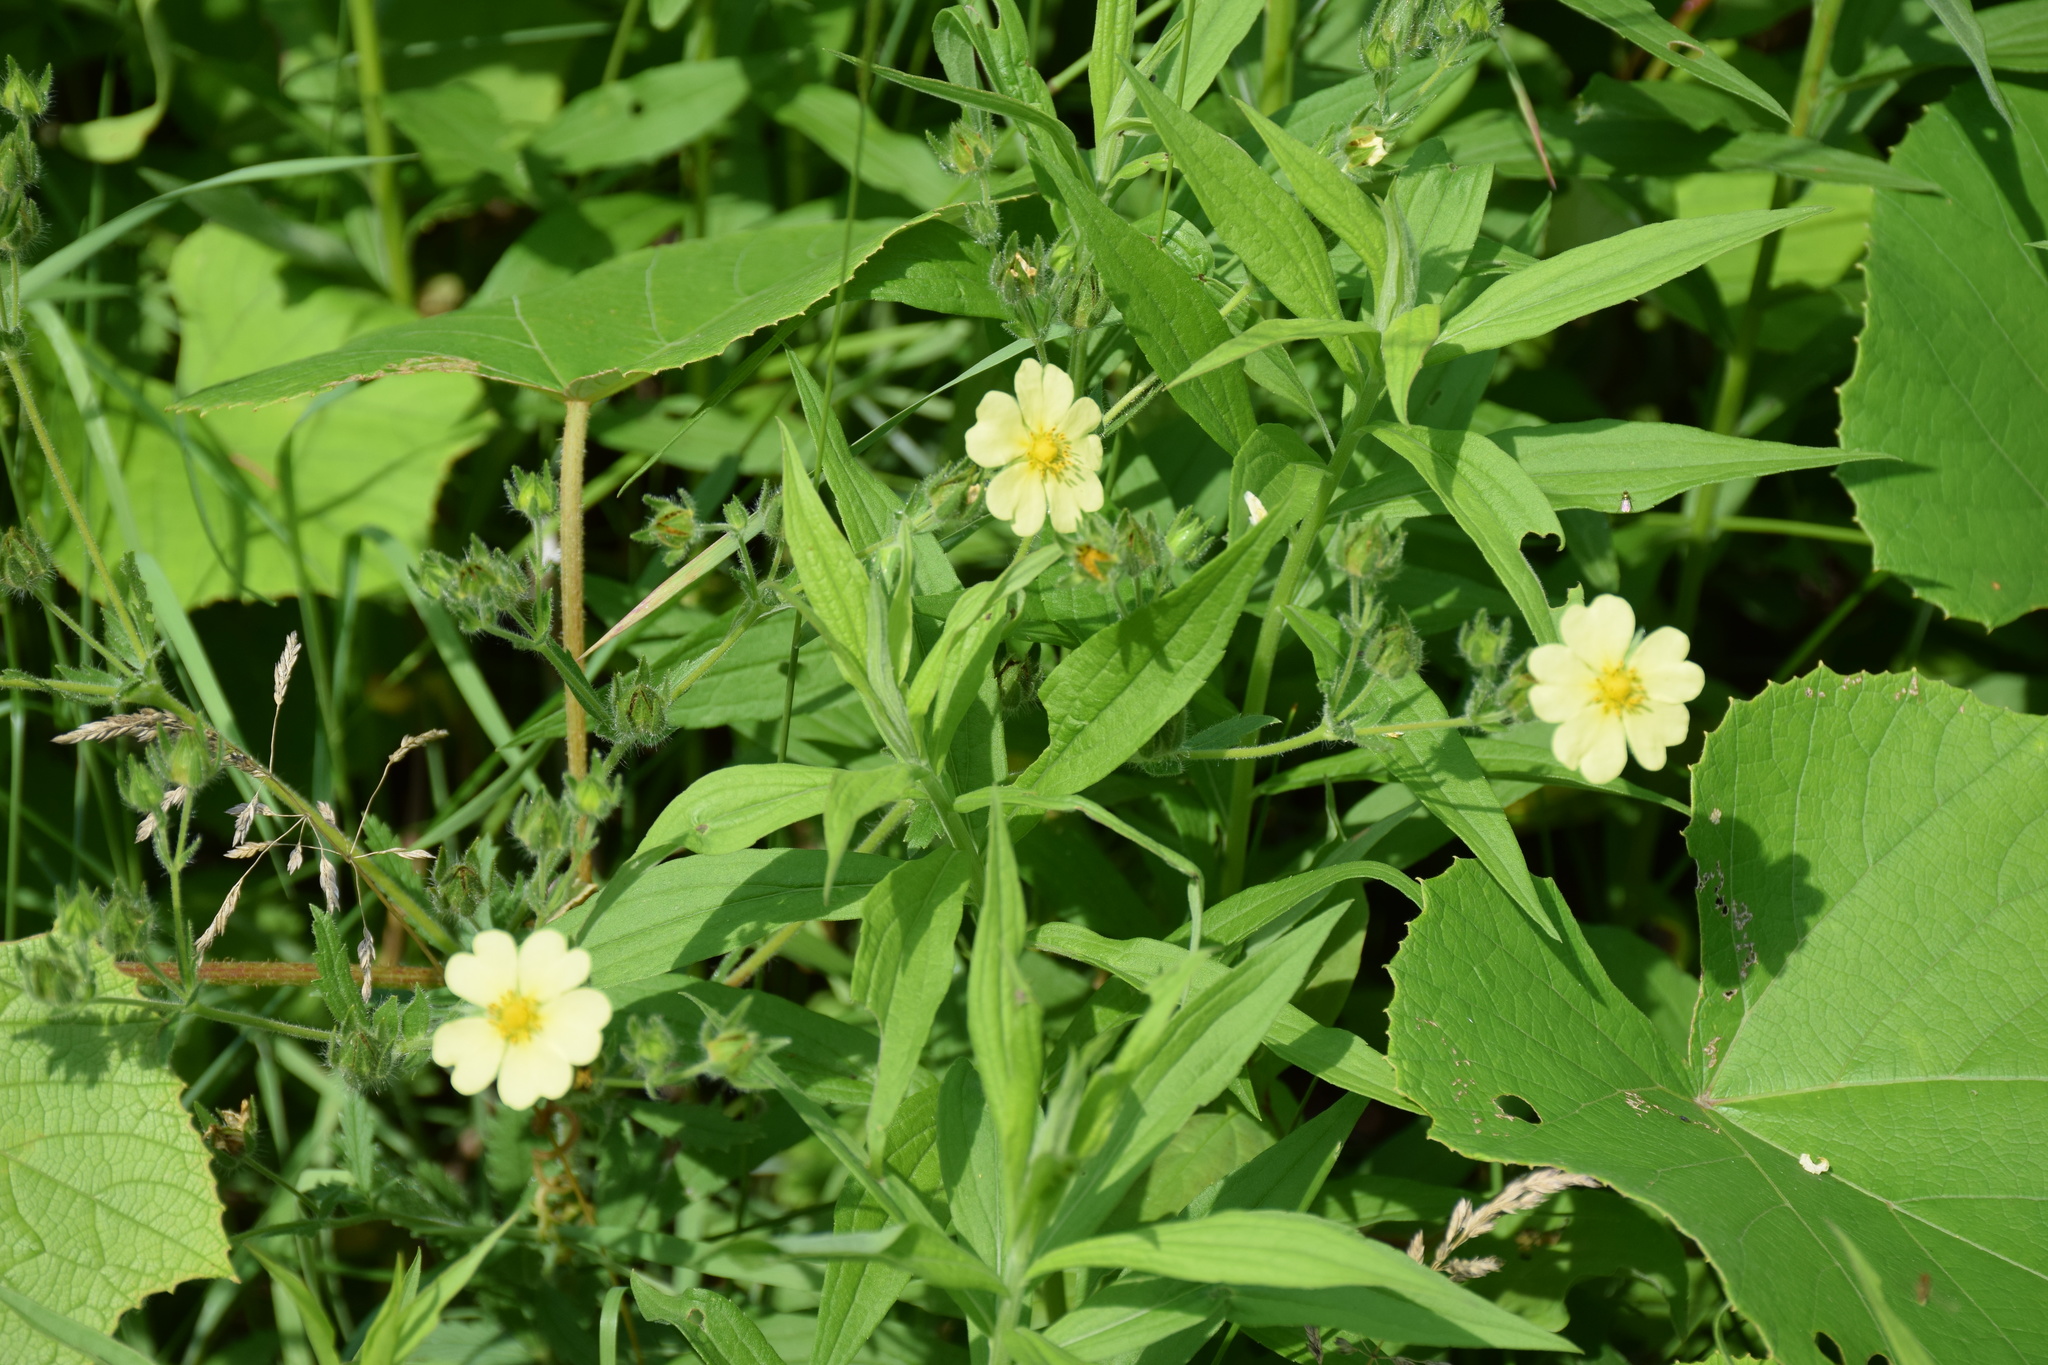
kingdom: Plantae
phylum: Tracheophyta
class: Magnoliopsida
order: Rosales
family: Rosaceae
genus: Potentilla
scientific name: Potentilla recta
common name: Sulphur cinquefoil
